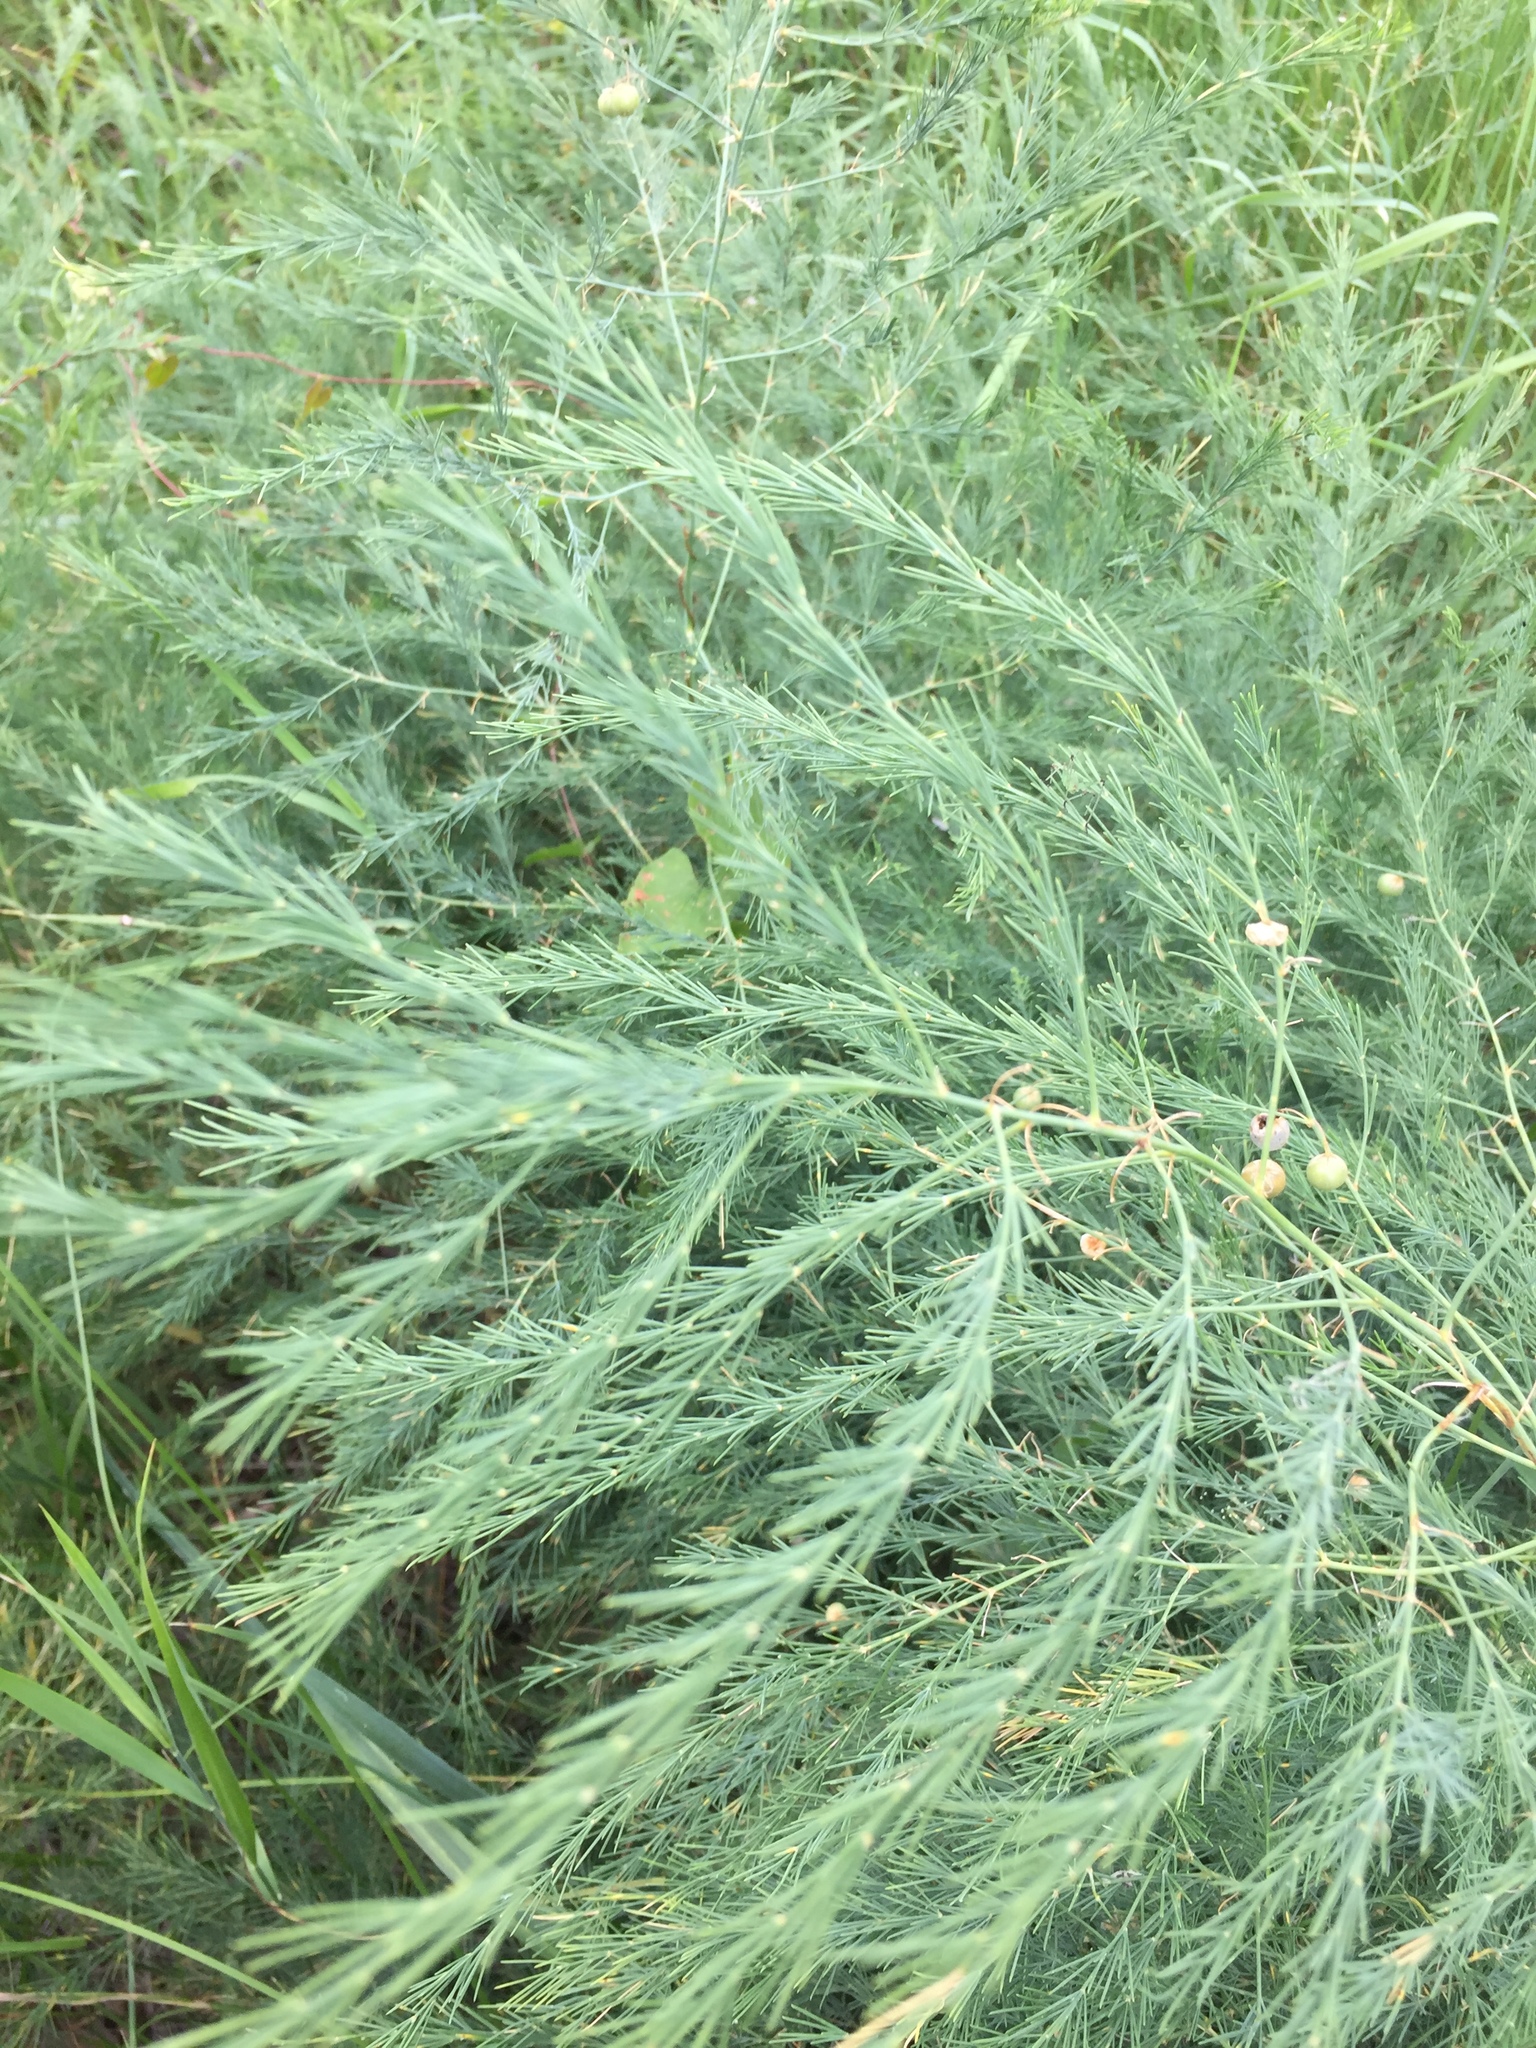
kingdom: Plantae
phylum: Tracheophyta
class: Liliopsida
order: Asparagales
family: Asparagaceae
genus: Asparagus
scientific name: Asparagus officinalis
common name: Garden asparagus
